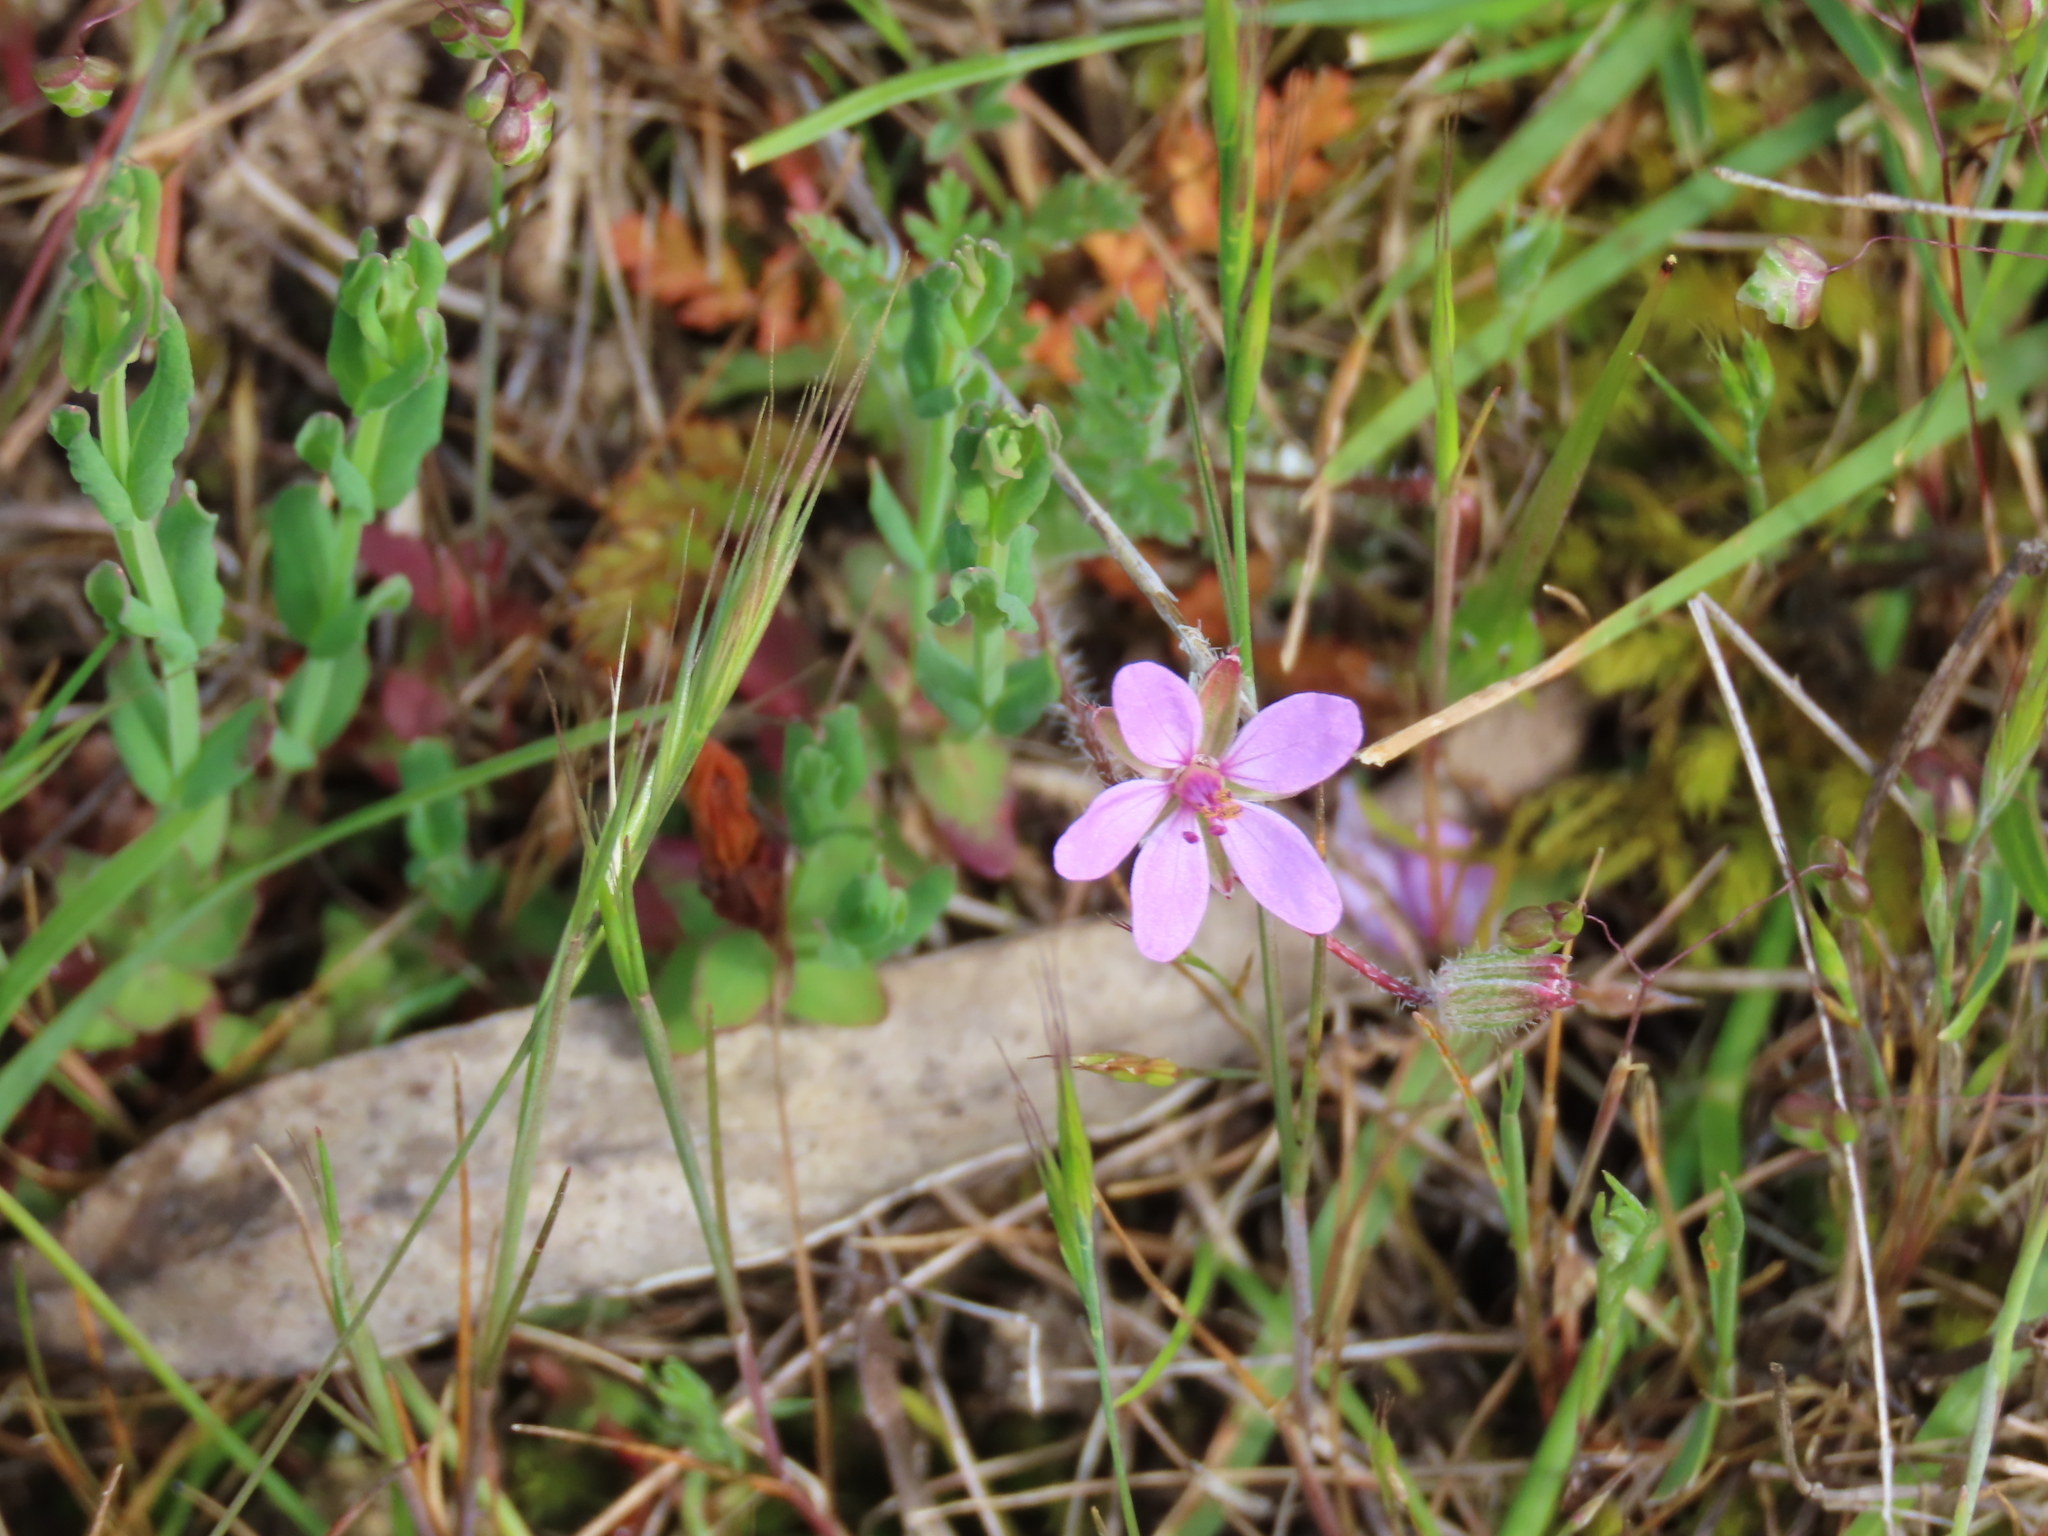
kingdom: Plantae
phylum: Tracheophyta
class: Magnoliopsida
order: Geraniales
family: Geraniaceae
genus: Erodium
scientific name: Erodium cicutarium
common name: Common stork's-bill
